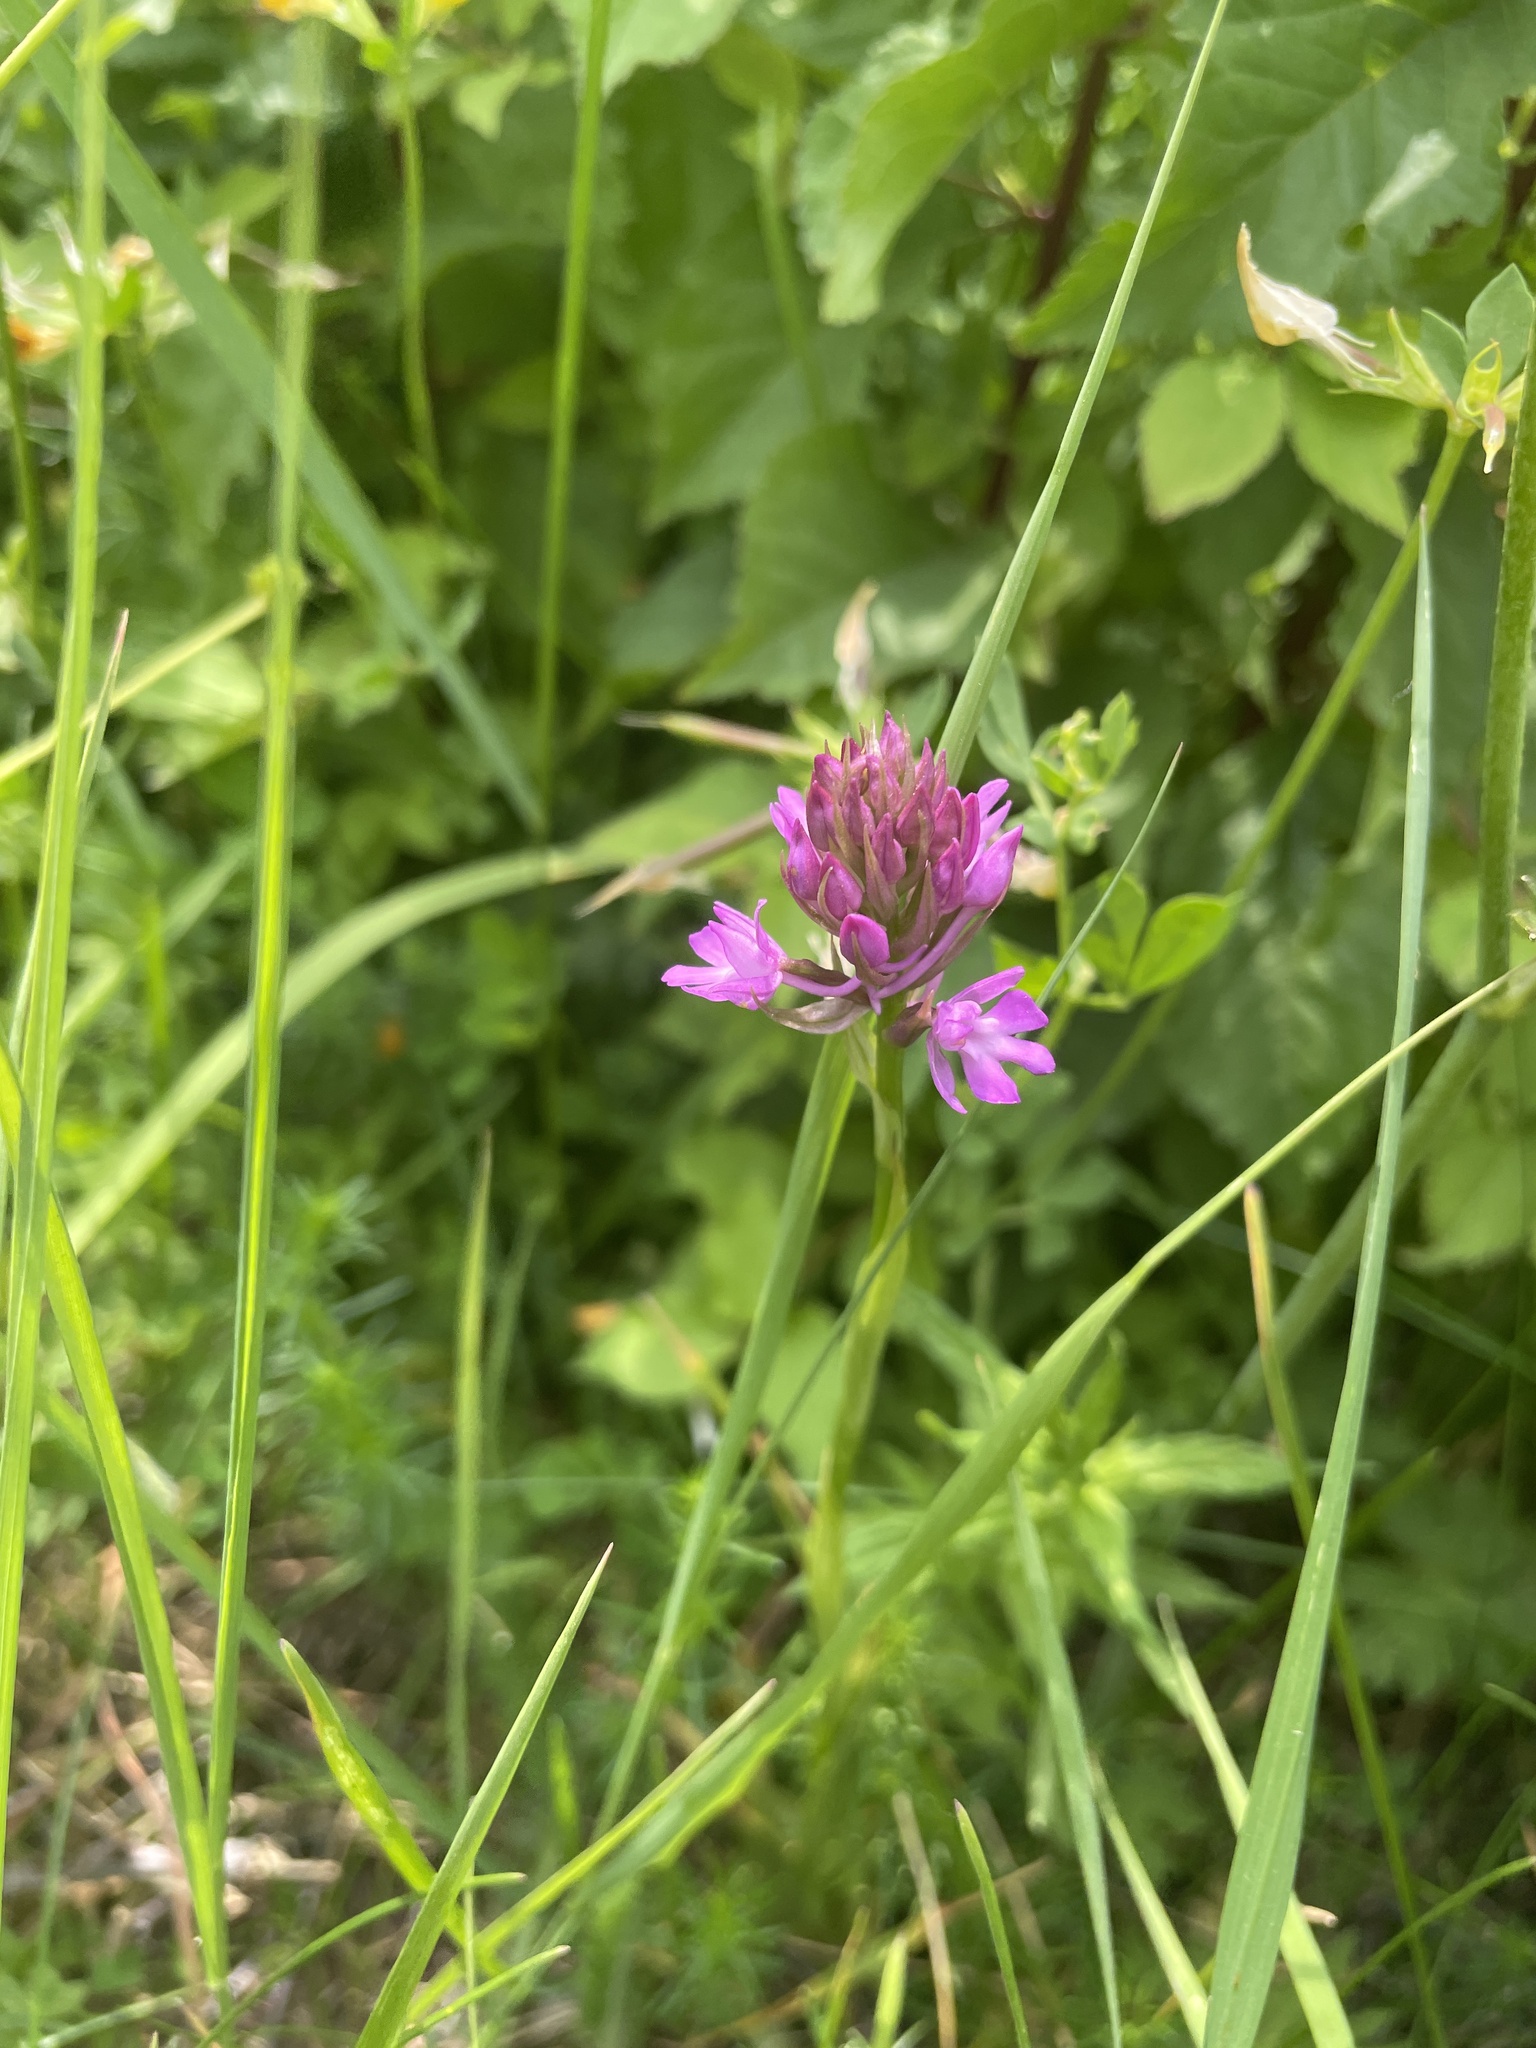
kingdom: Plantae
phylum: Tracheophyta
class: Liliopsida
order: Asparagales
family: Orchidaceae
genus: Anacamptis
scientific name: Anacamptis pyramidalis
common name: Pyramidal orchid
